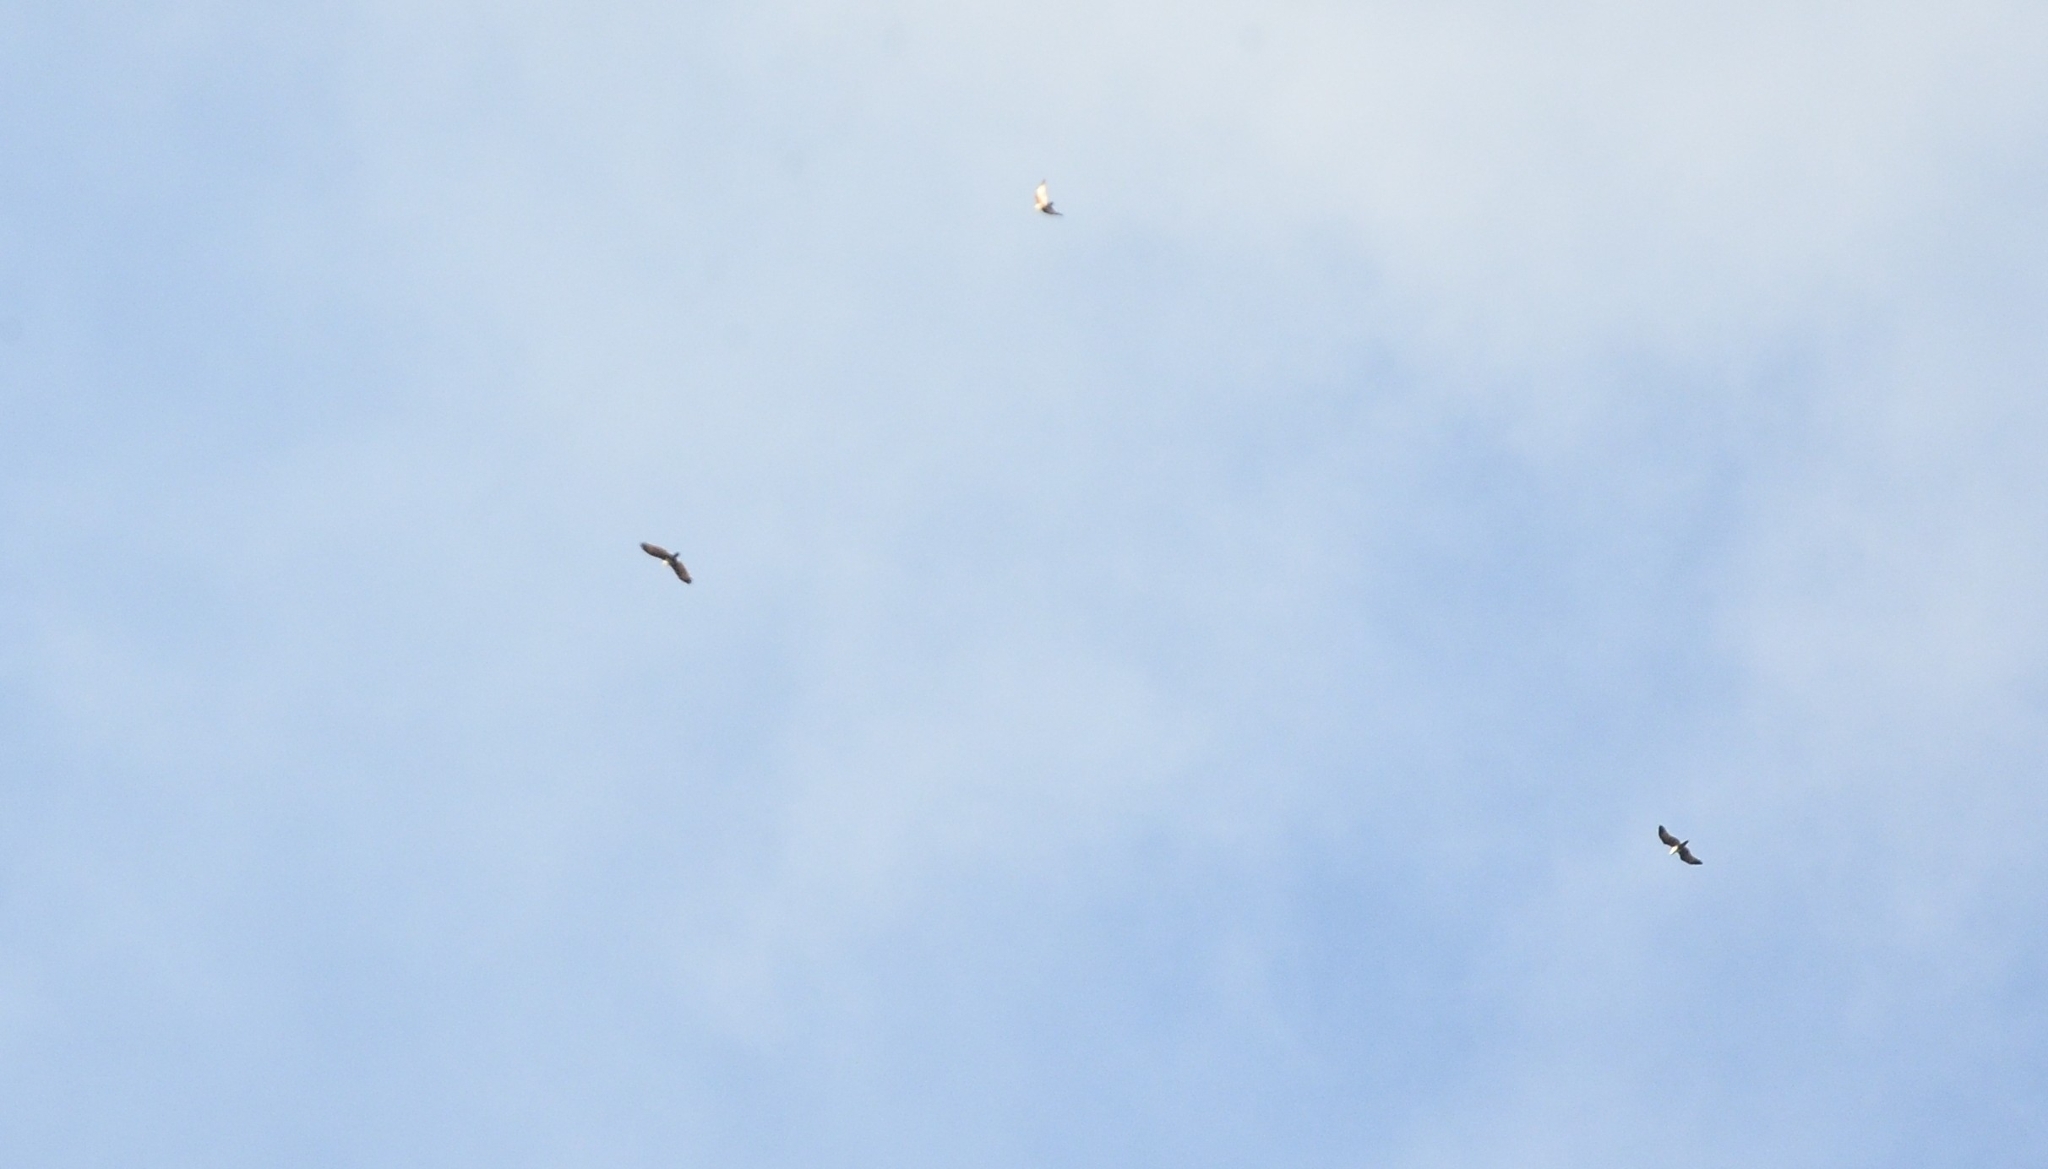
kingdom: Animalia
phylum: Chordata
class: Aves
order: Accipitriformes
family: Accipitridae
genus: Haliastur
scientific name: Haliastur indus
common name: Brahminy kite
